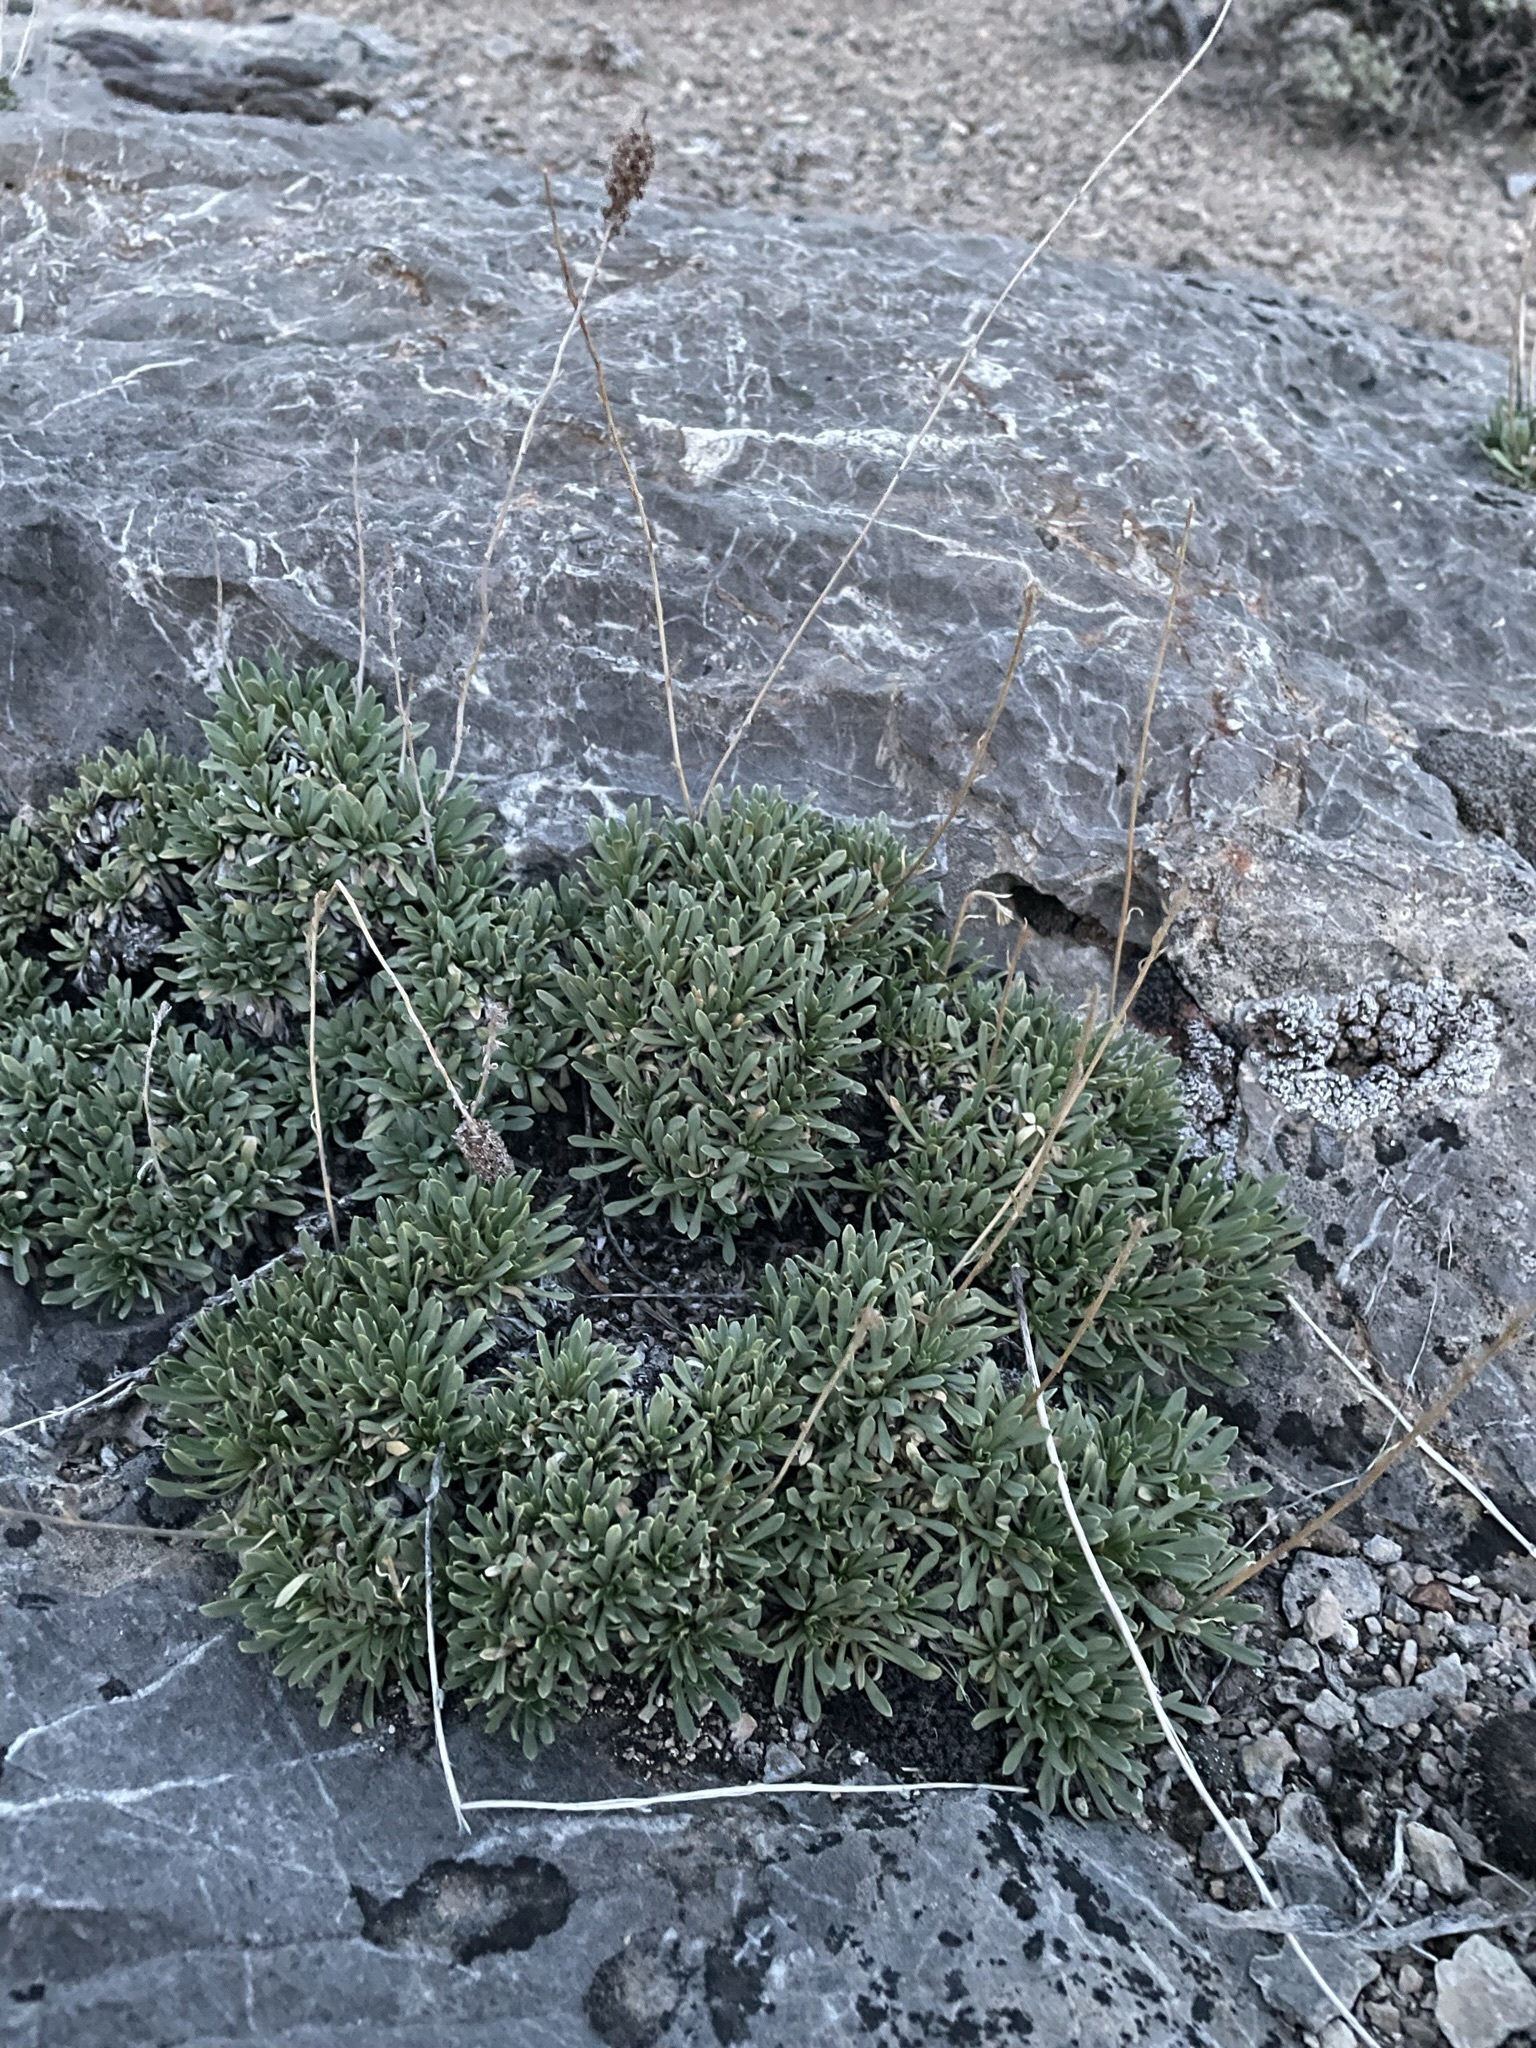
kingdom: Plantae
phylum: Tracheophyta
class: Magnoliopsida
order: Rosales
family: Rosaceae
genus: Petrophytum
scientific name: Petrophytum caespitosum
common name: Mat rockspirea
